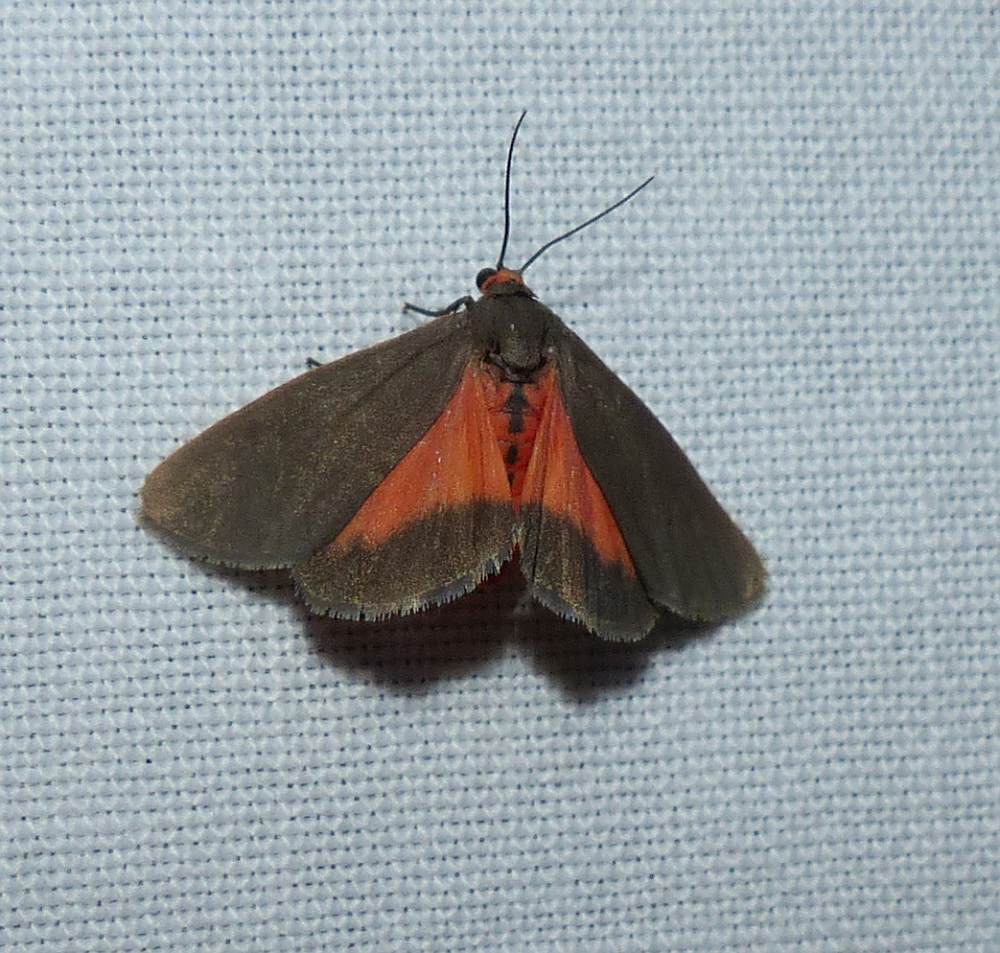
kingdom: Animalia
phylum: Arthropoda
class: Insecta
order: Lepidoptera
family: Erebidae
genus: Virbia
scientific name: Virbia laeta
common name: Joyful holomelina moth
